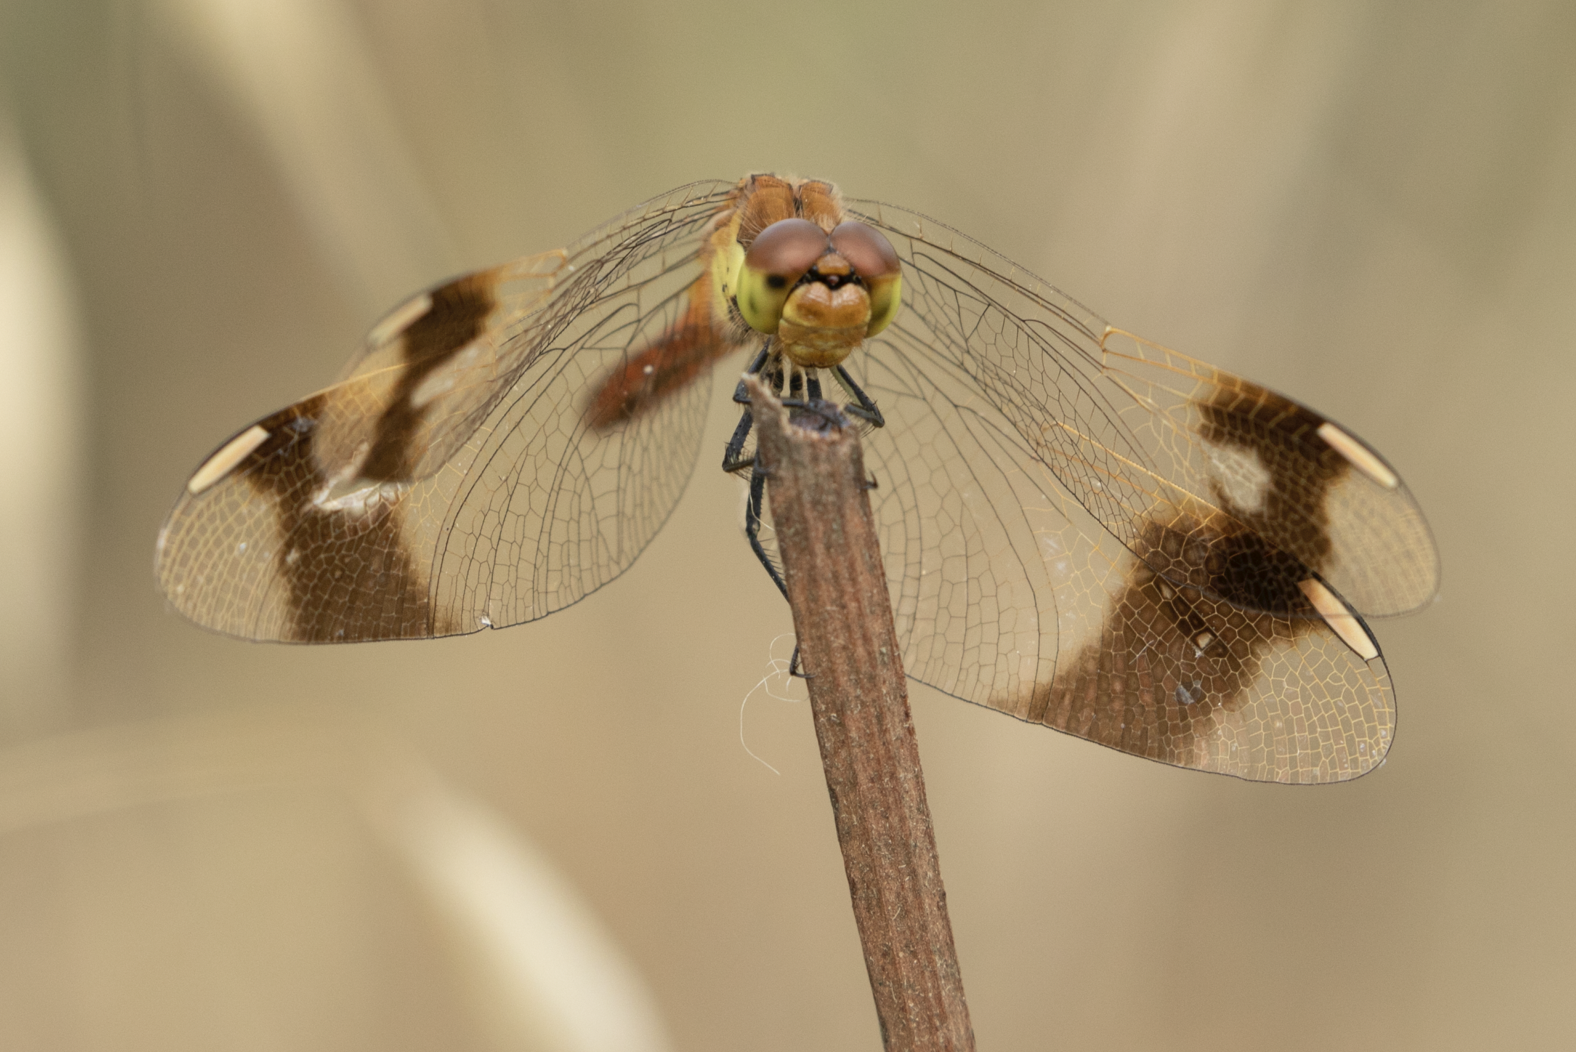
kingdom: Animalia
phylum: Arthropoda
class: Insecta
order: Odonata
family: Libellulidae
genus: Sympetrum
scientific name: Sympetrum pedemontanum
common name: Banded darter
